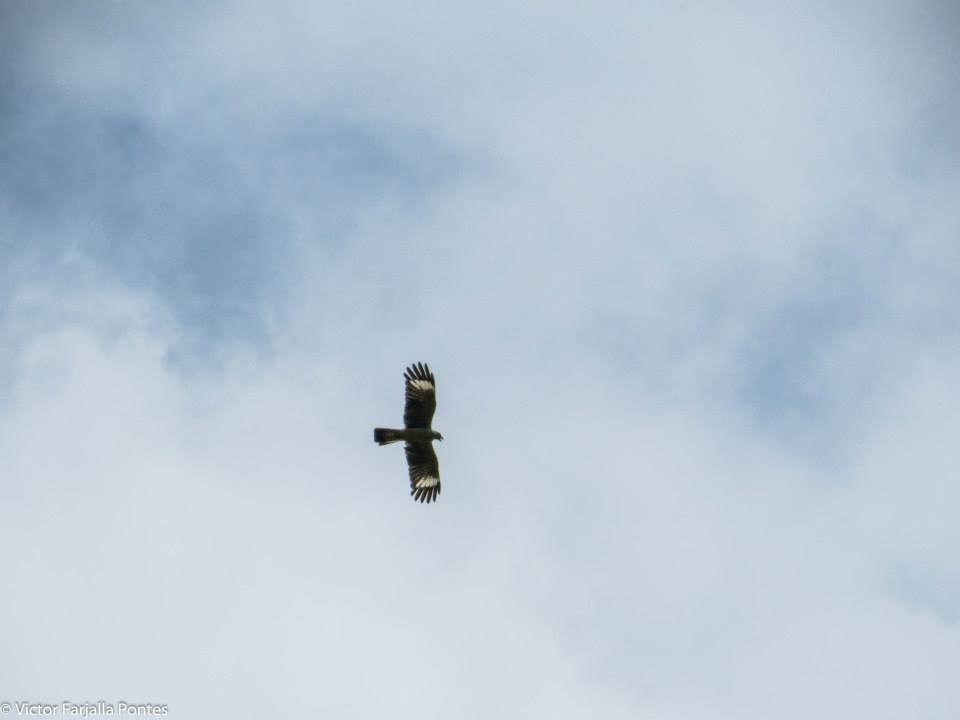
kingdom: Animalia
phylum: Chordata
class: Aves
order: Falconiformes
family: Falconidae
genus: Daptrius
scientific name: Daptrius
